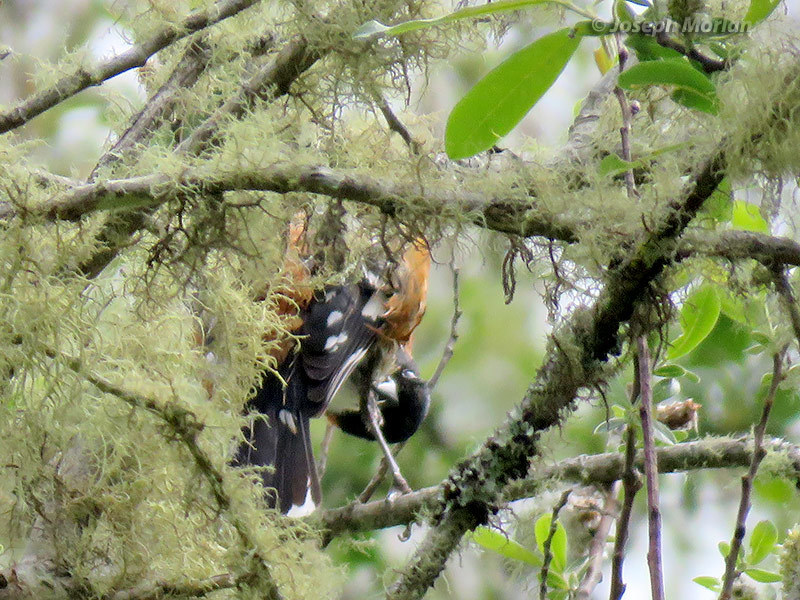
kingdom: Animalia
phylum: Chordata
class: Aves
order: Passeriformes
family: Cardinalidae
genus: Pheucticus
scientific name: Pheucticus melanocephalus
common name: Black-headed grosbeak
